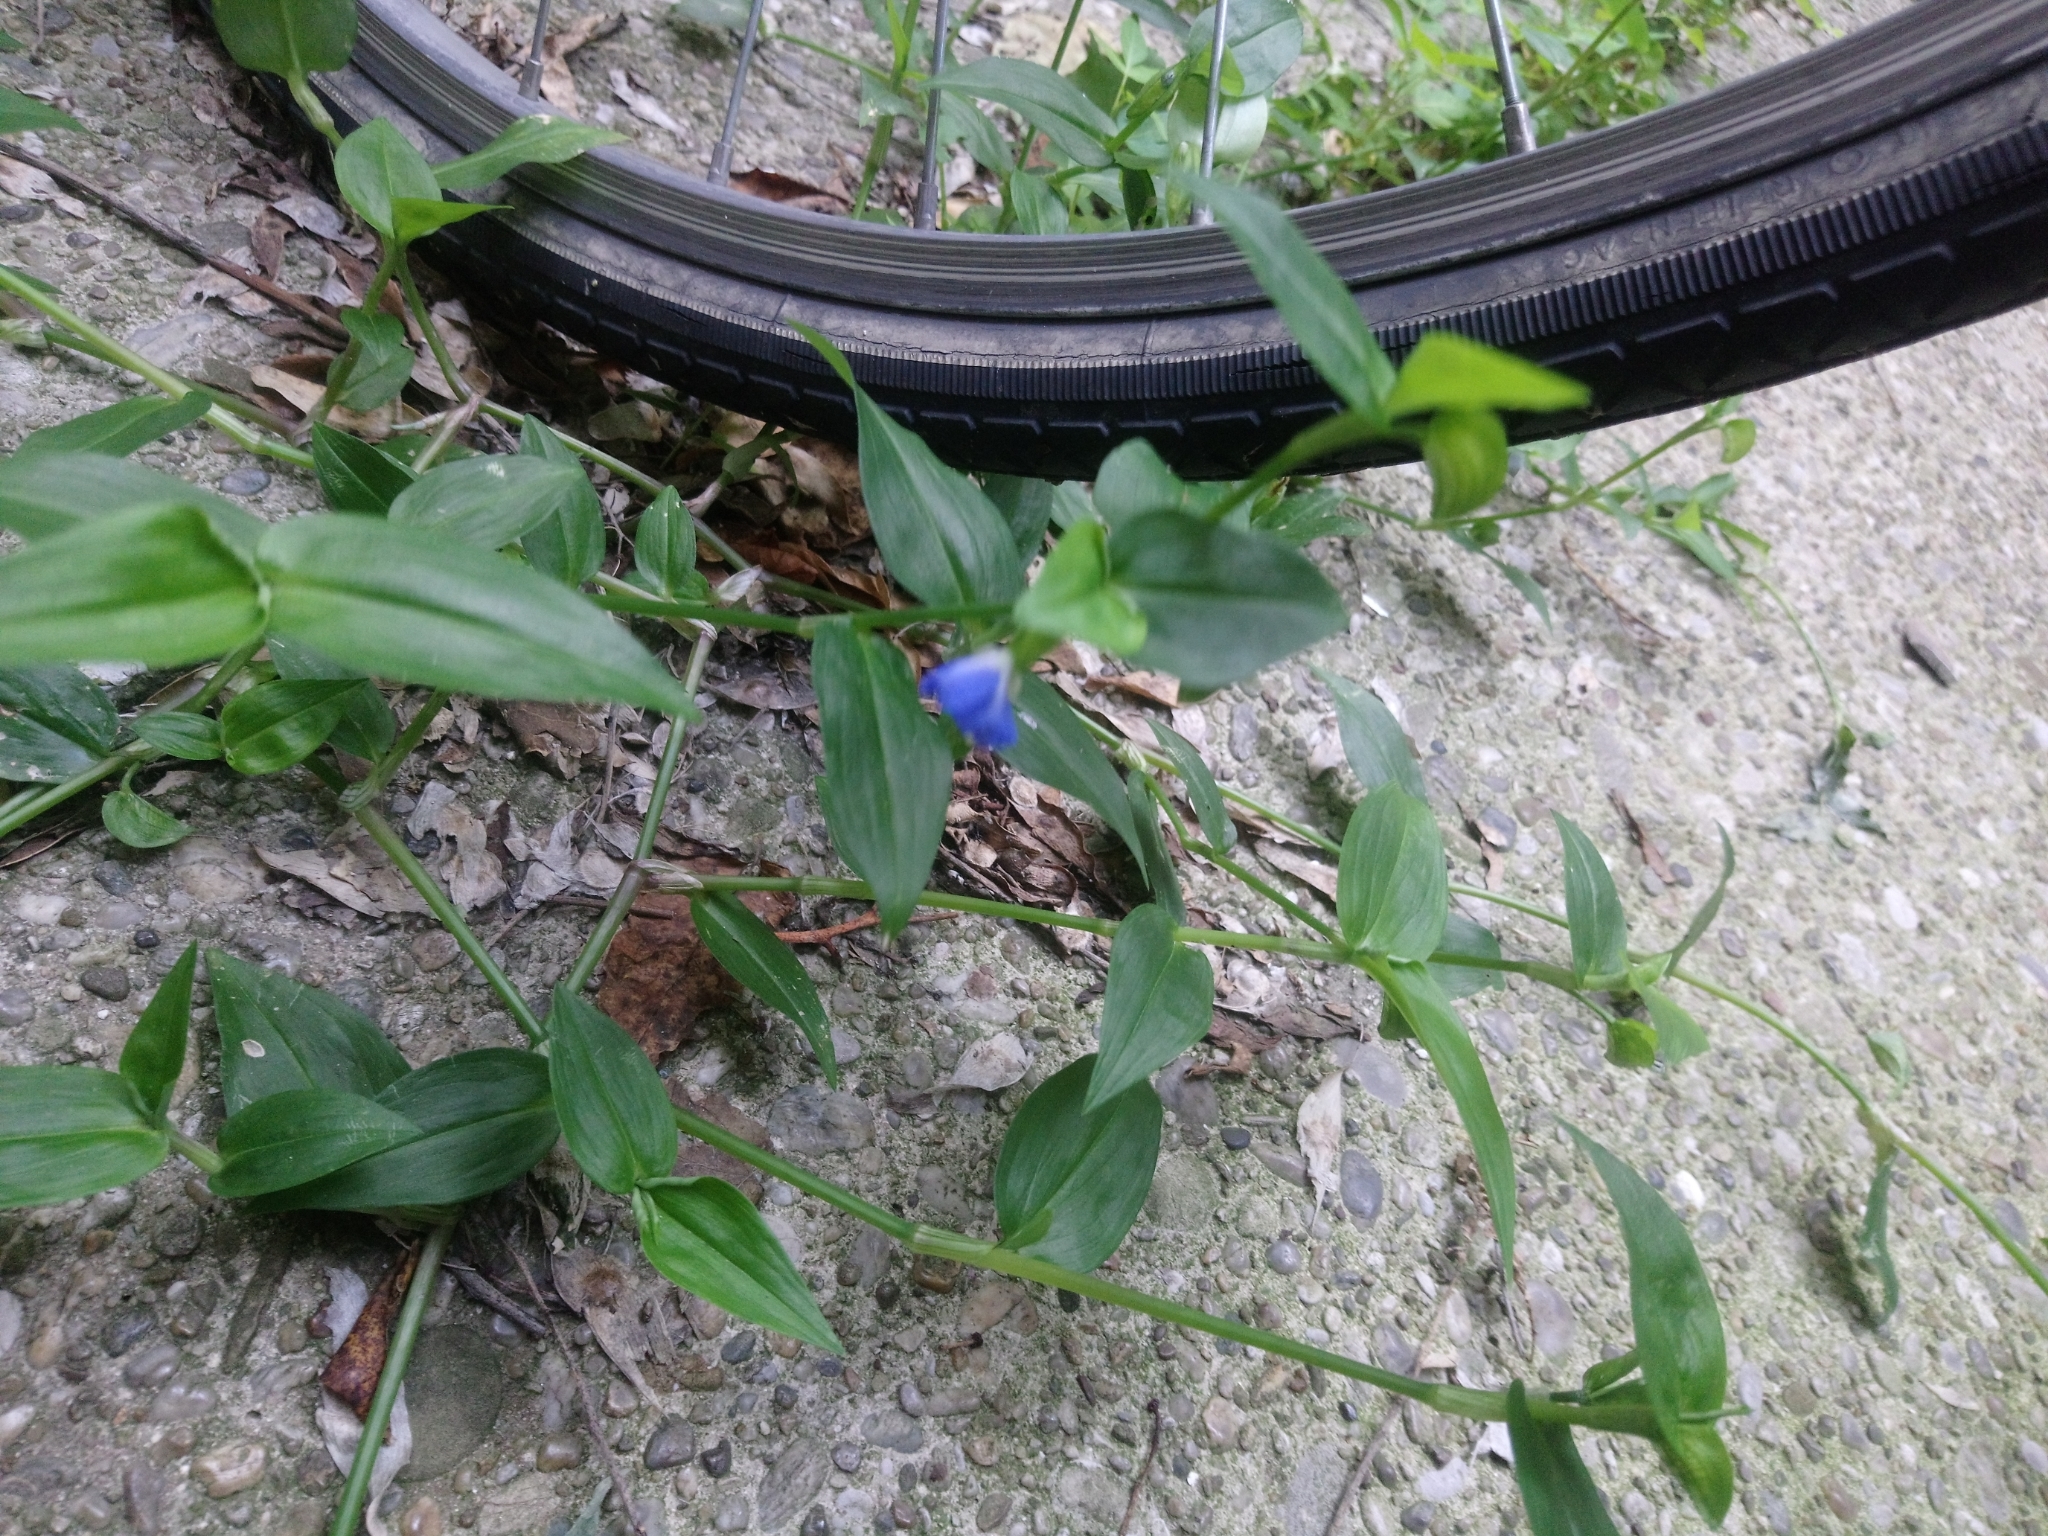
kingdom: Plantae
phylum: Tracheophyta
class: Liliopsida
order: Commelinales
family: Commelinaceae
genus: Commelina
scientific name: Commelina communis
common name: Asiatic dayflower
